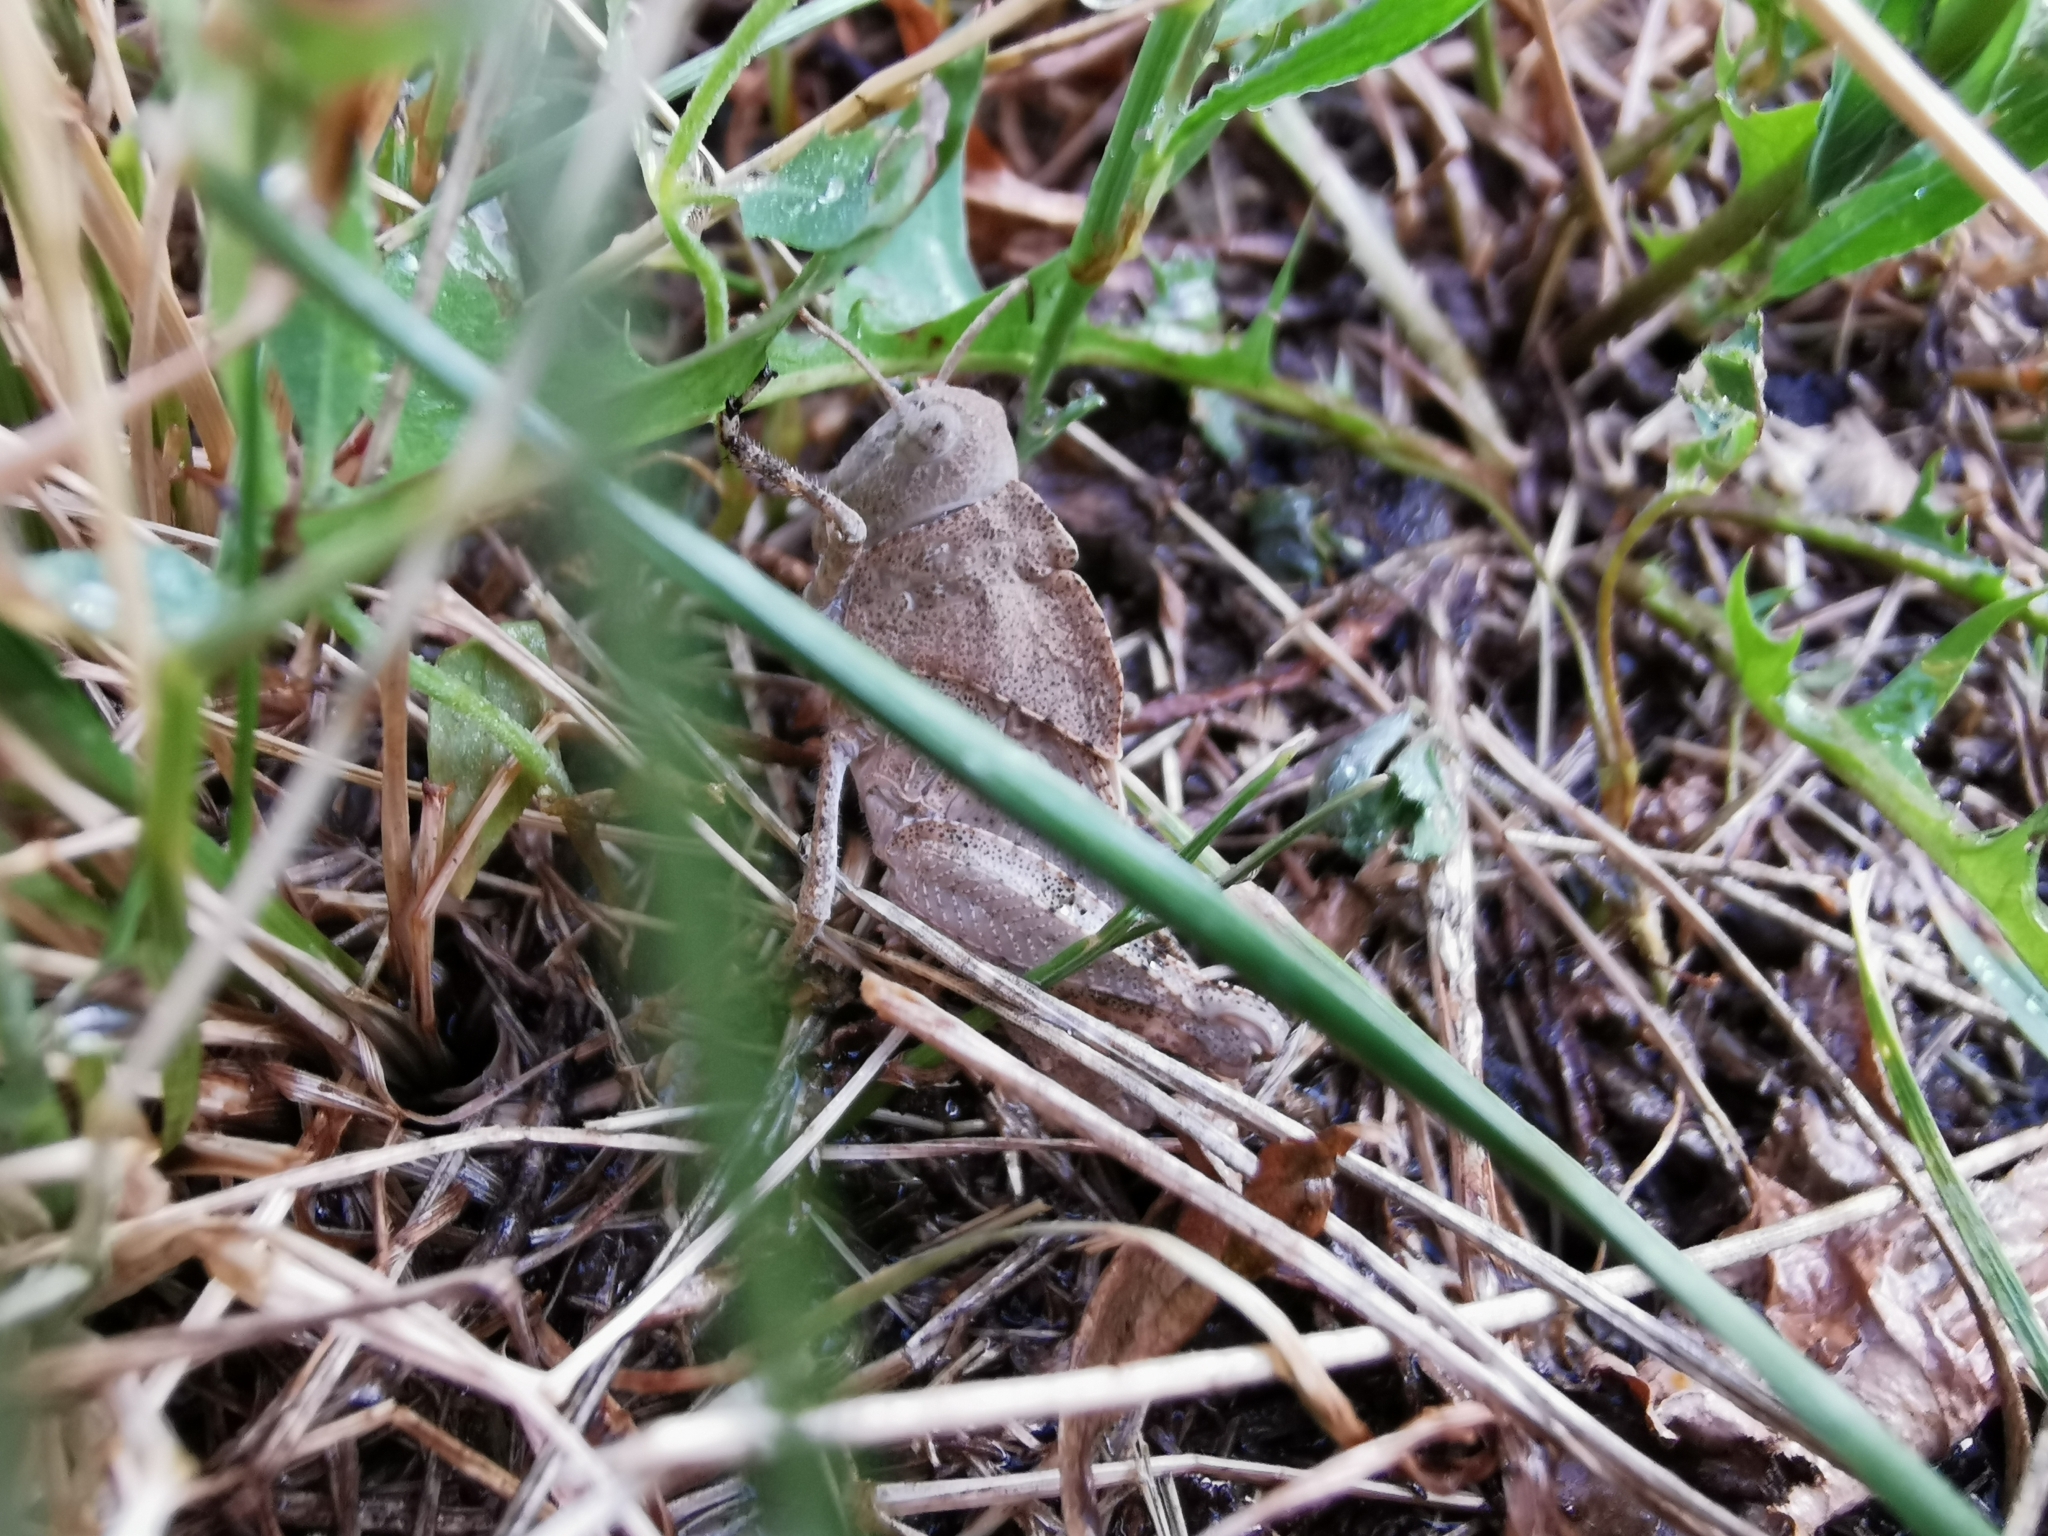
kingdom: Animalia
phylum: Arthropoda
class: Insecta
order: Orthoptera
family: Acrididae
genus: Dissosteira
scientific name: Dissosteira carolina
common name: Carolina grasshopper
